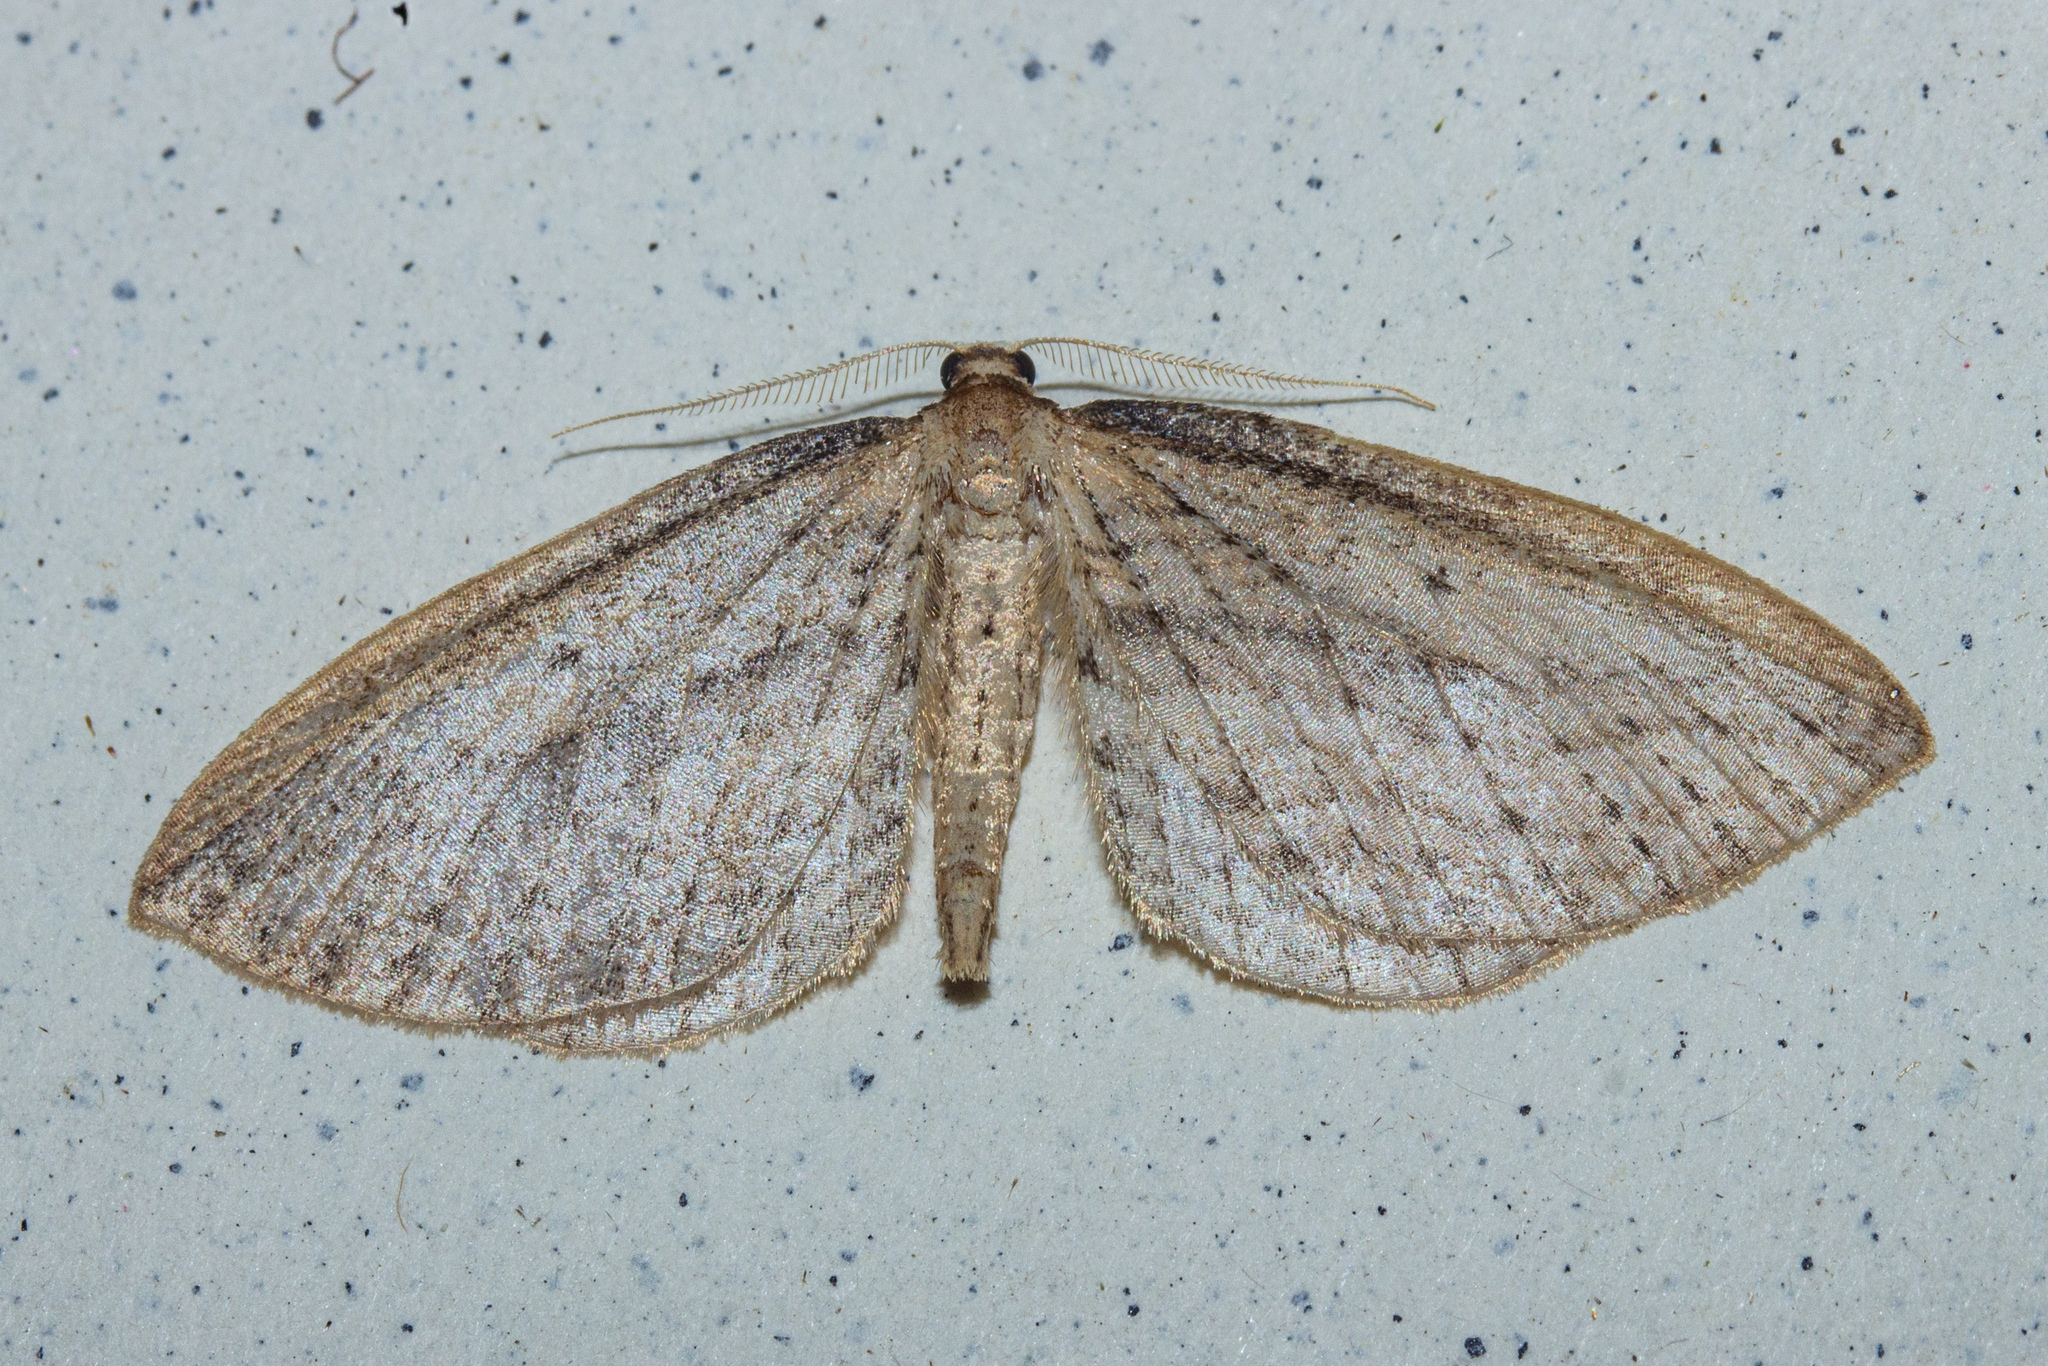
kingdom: Animalia
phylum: Arthropoda
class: Insecta
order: Lepidoptera
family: Geometridae
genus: Epiphryne
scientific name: Epiphryne charidema
